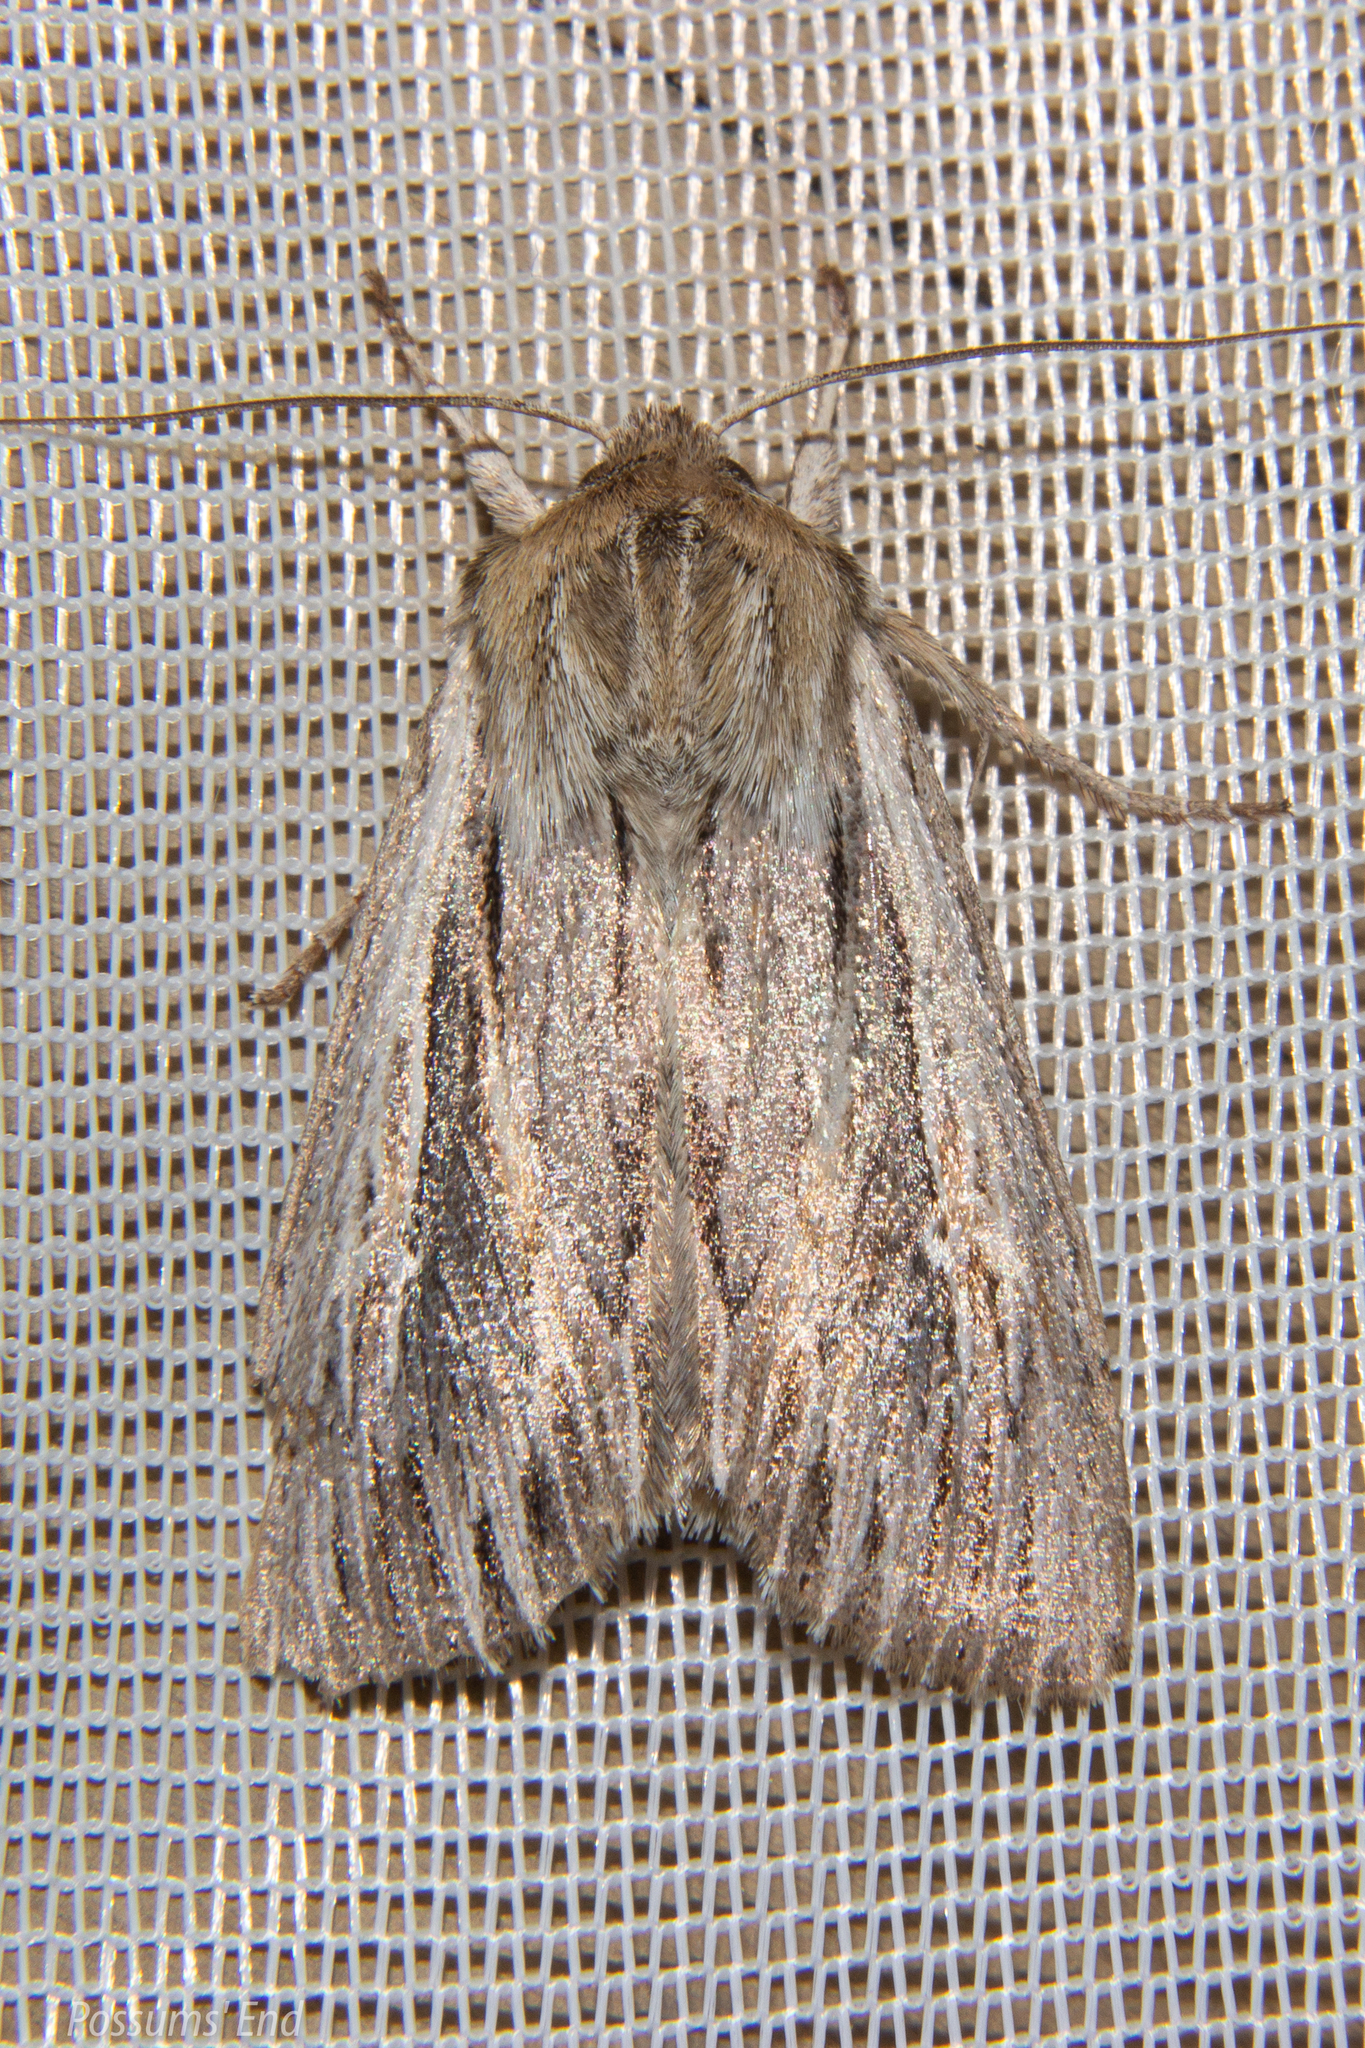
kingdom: Animalia
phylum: Arthropoda
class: Insecta
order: Lepidoptera
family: Noctuidae
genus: Persectania
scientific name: Persectania aversa
